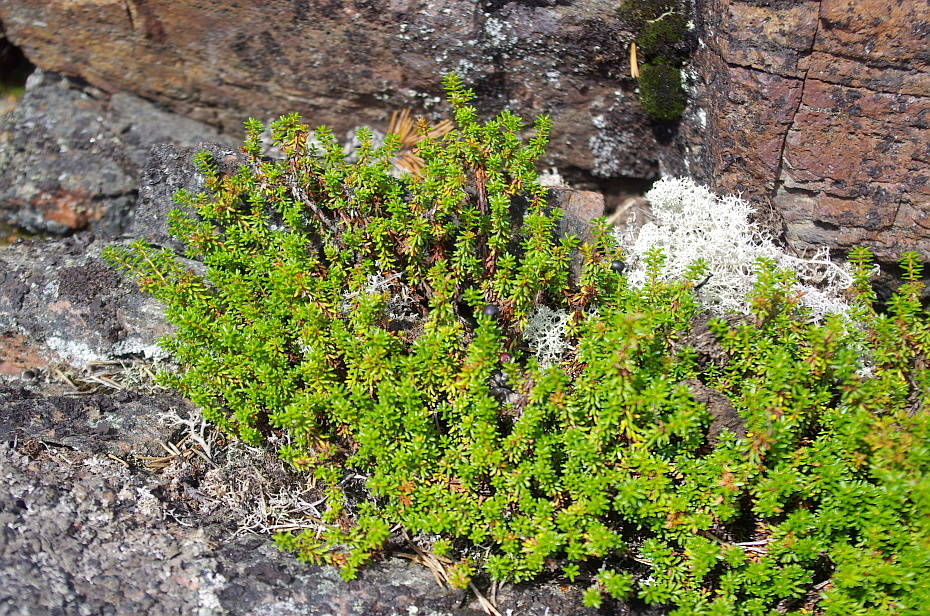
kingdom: Plantae
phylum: Tracheophyta
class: Magnoliopsida
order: Ericales
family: Ericaceae
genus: Empetrum
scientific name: Empetrum nigrum
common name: Black crowberry
